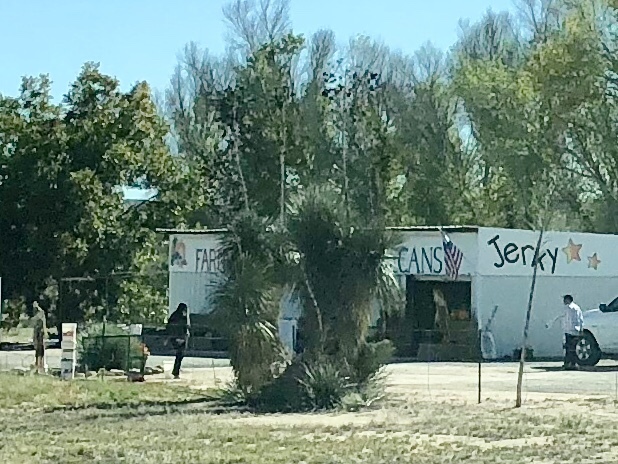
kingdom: Plantae
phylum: Tracheophyta
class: Liliopsida
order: Asparagales
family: Asparagaceae
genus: Yucca
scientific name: Yucca elata
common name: Palmella
